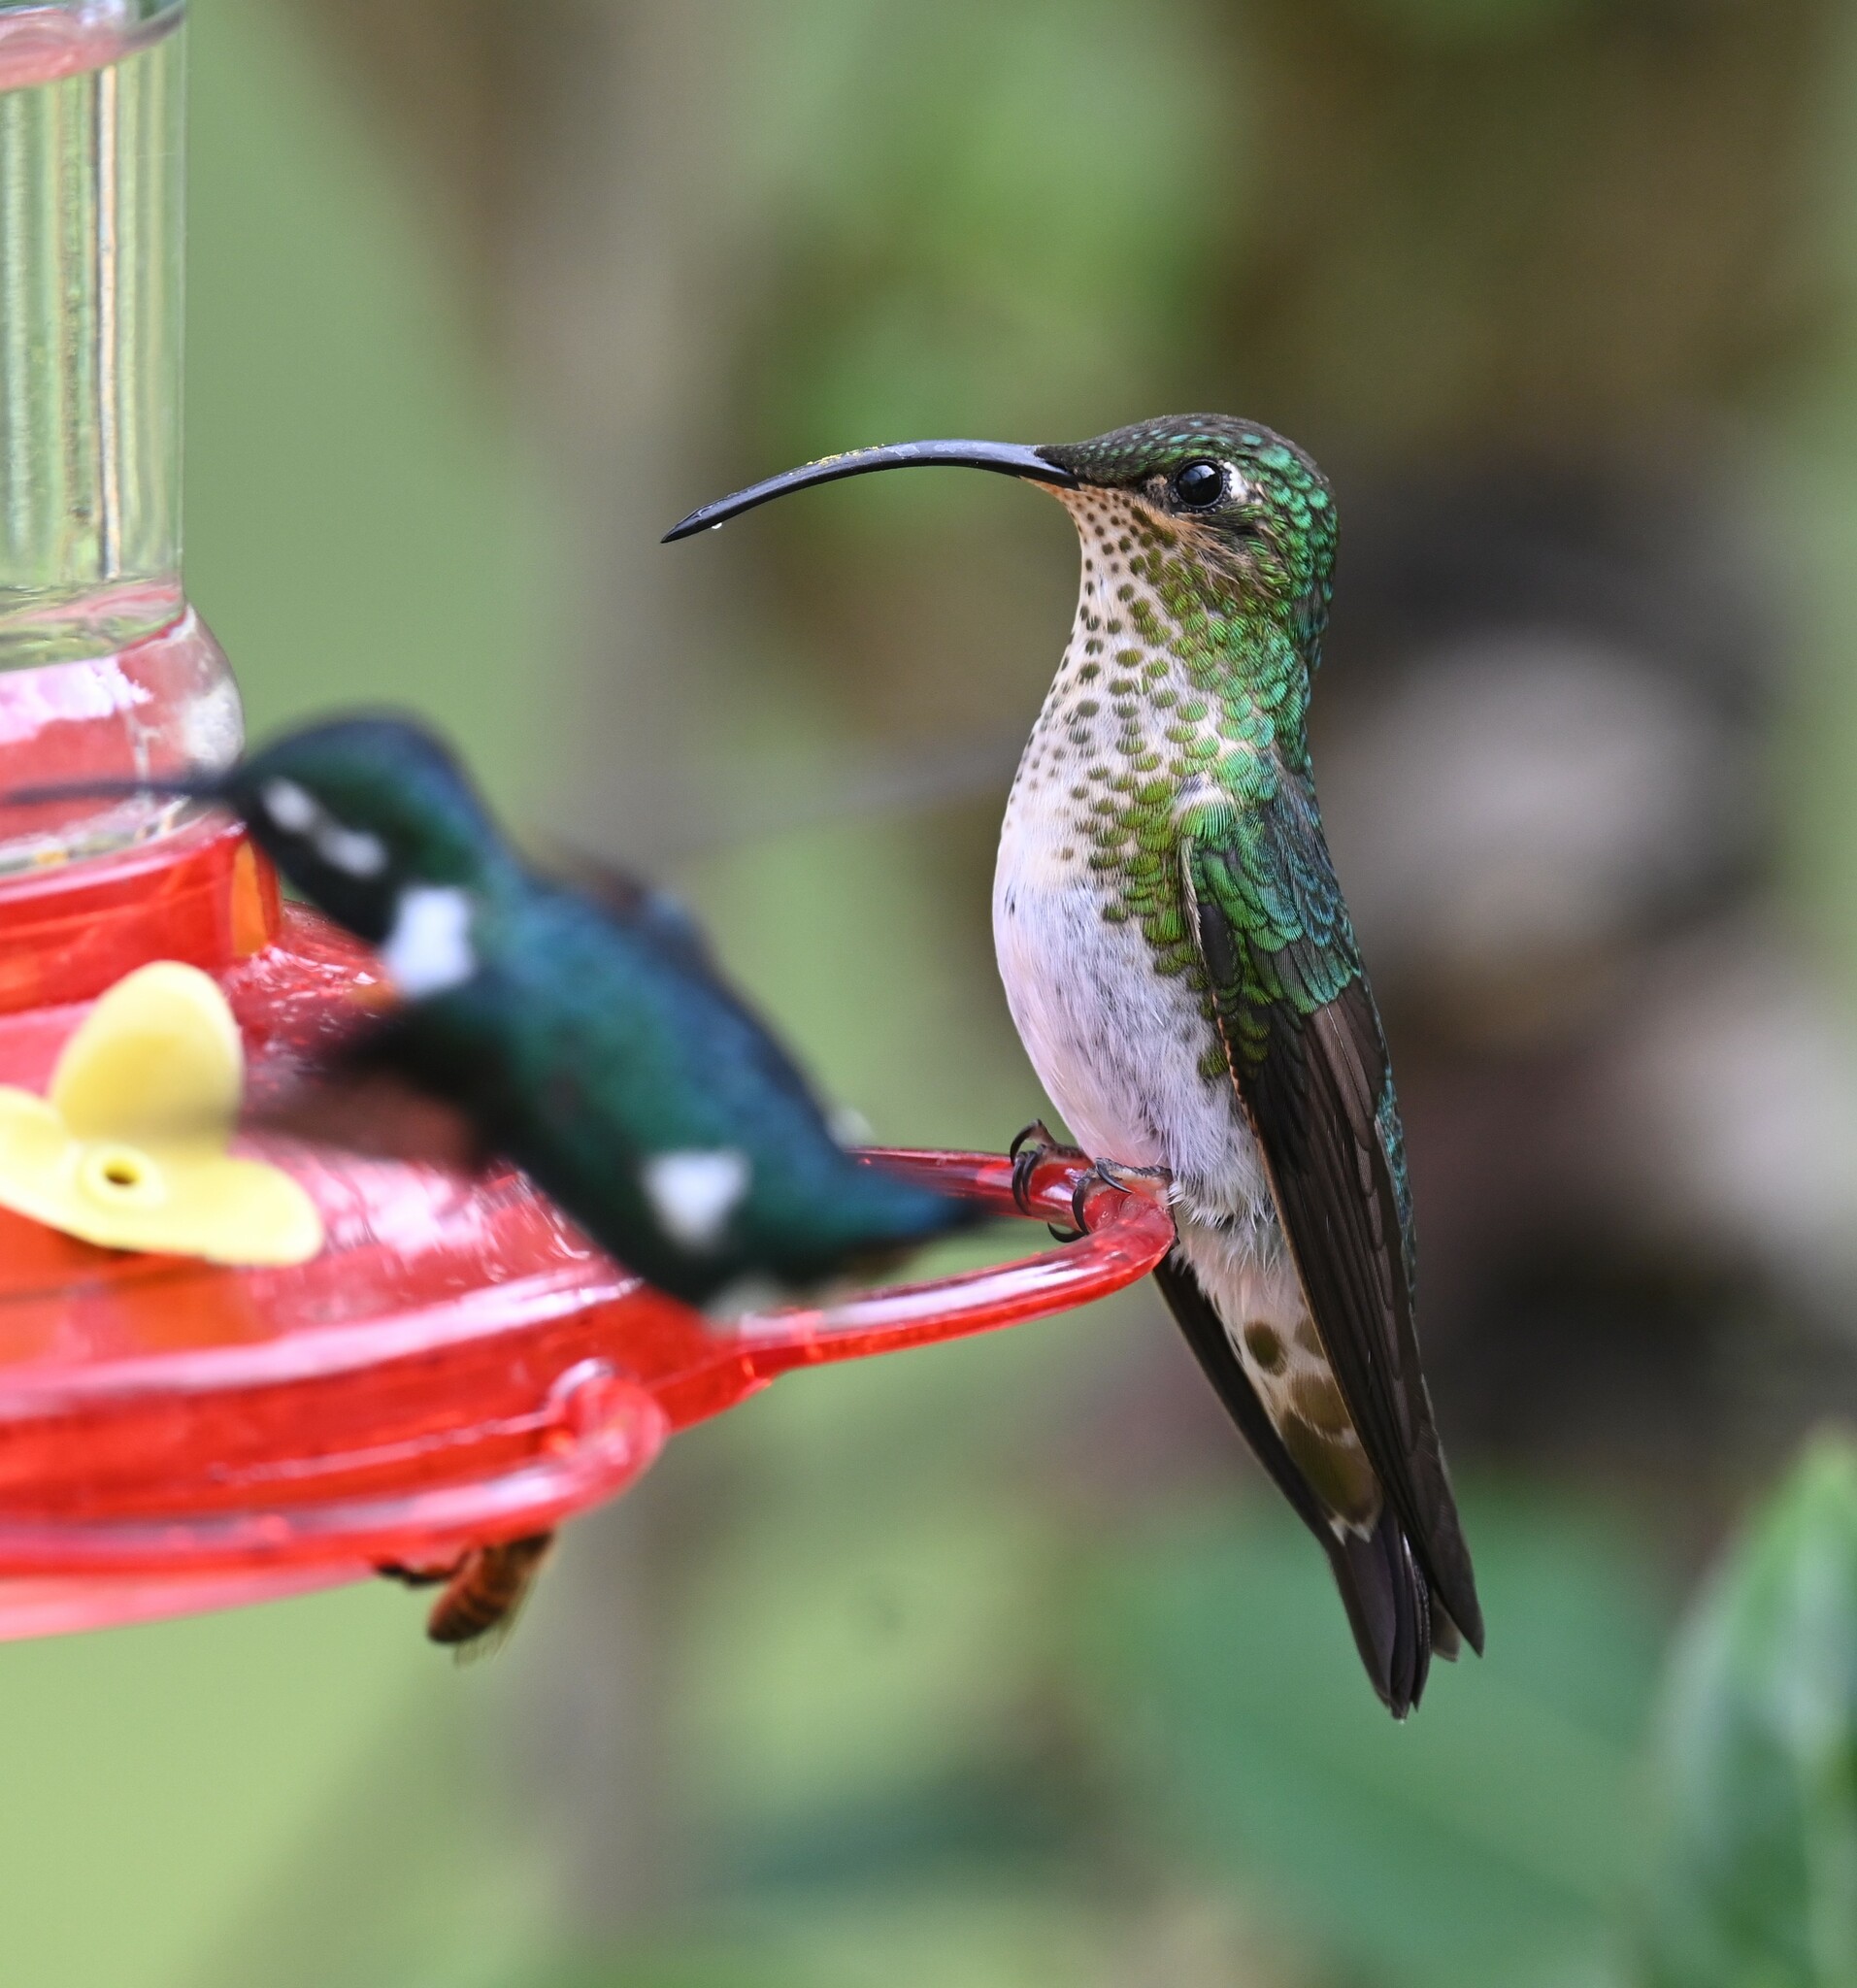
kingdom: Animalia
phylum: Chordata
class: Aves
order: Apodiformes
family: Trochilidae
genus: Lafresnaya
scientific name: Lafresnaya lafresnayi
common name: Mountain velvetbreast
